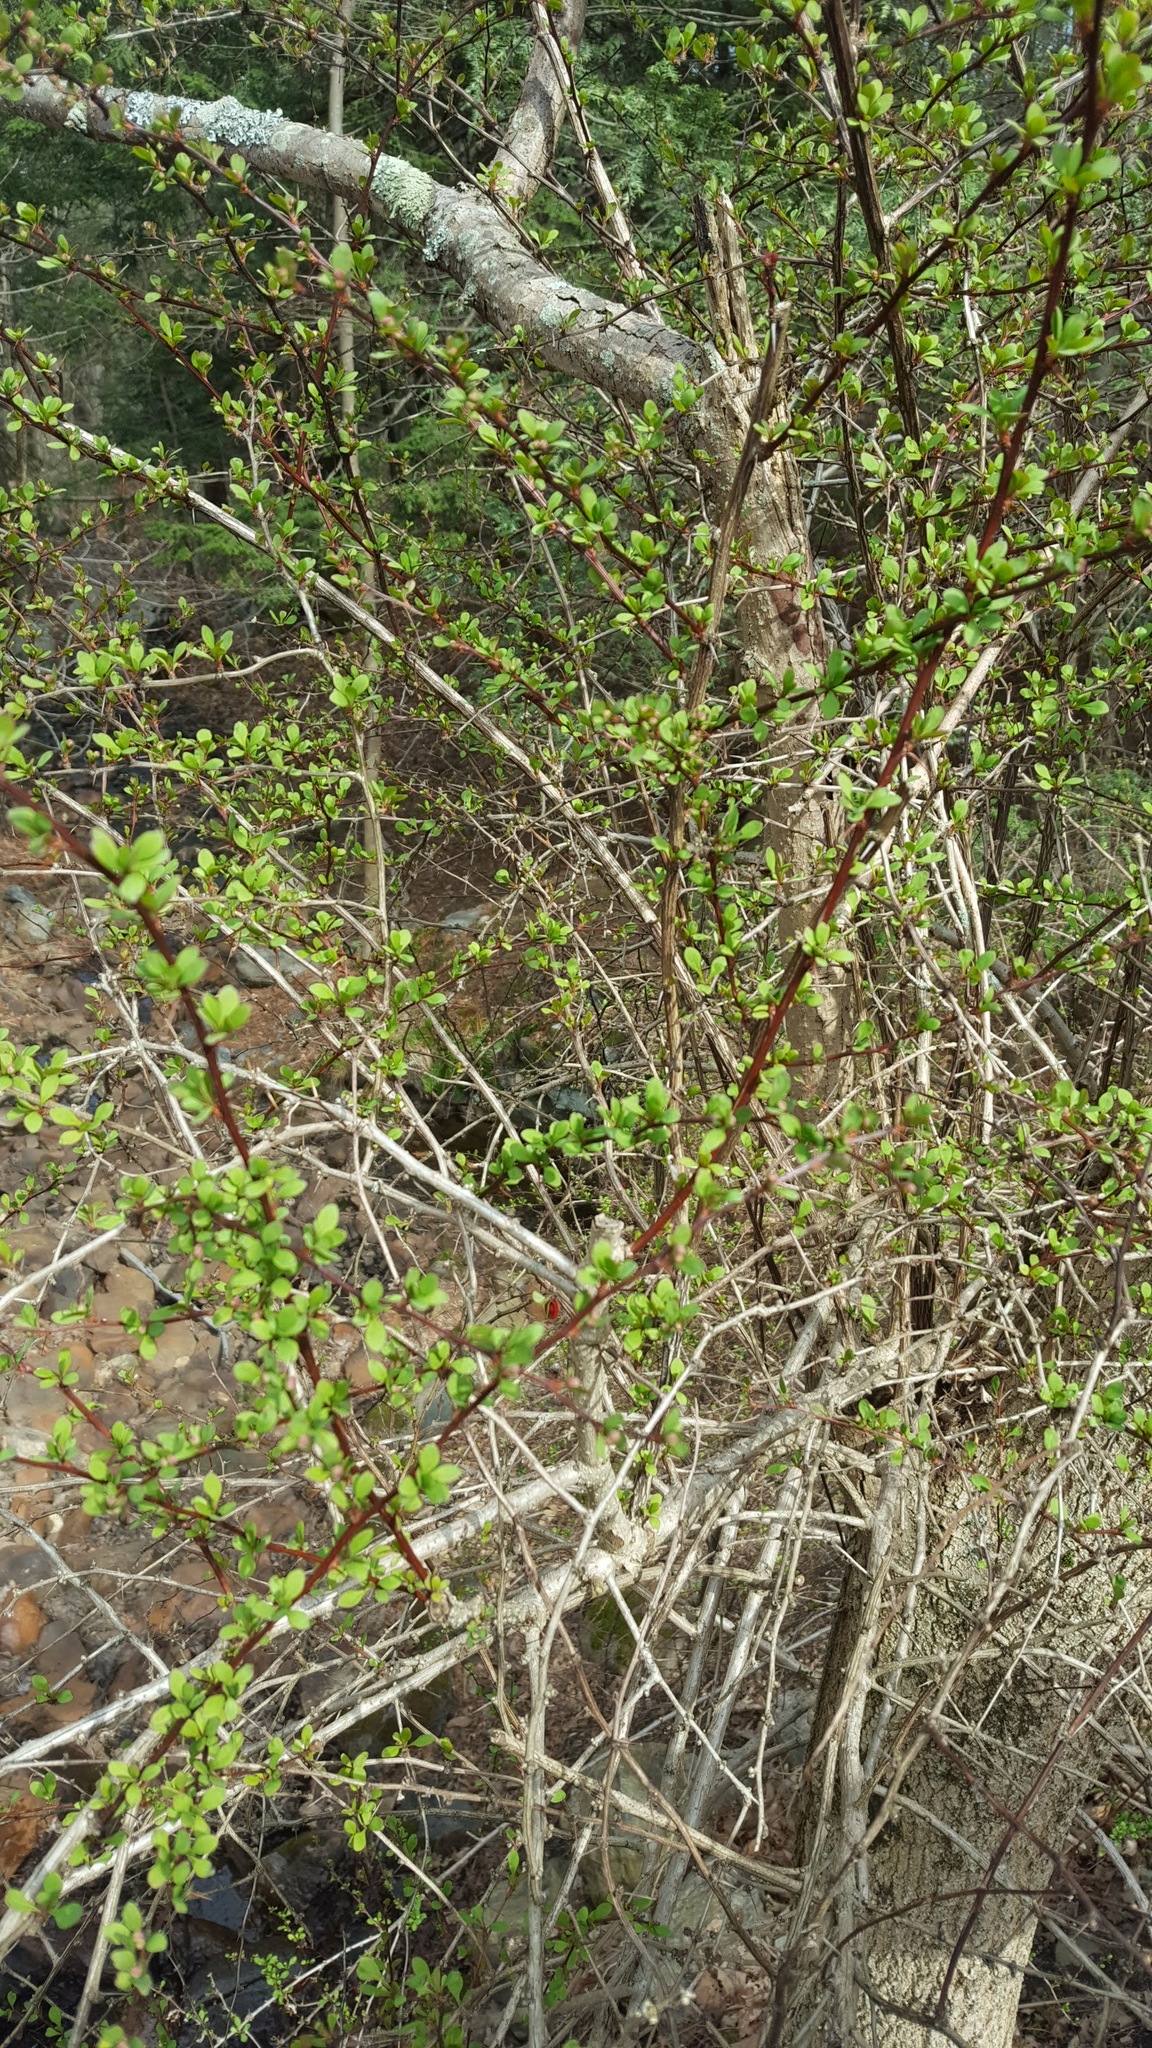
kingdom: Plantae
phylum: Tracheophyta
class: Magnoliopsida
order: Ranunculales
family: Berberidaceae
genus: Berberis
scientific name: Berberis thunbergii
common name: Japanese barberry
